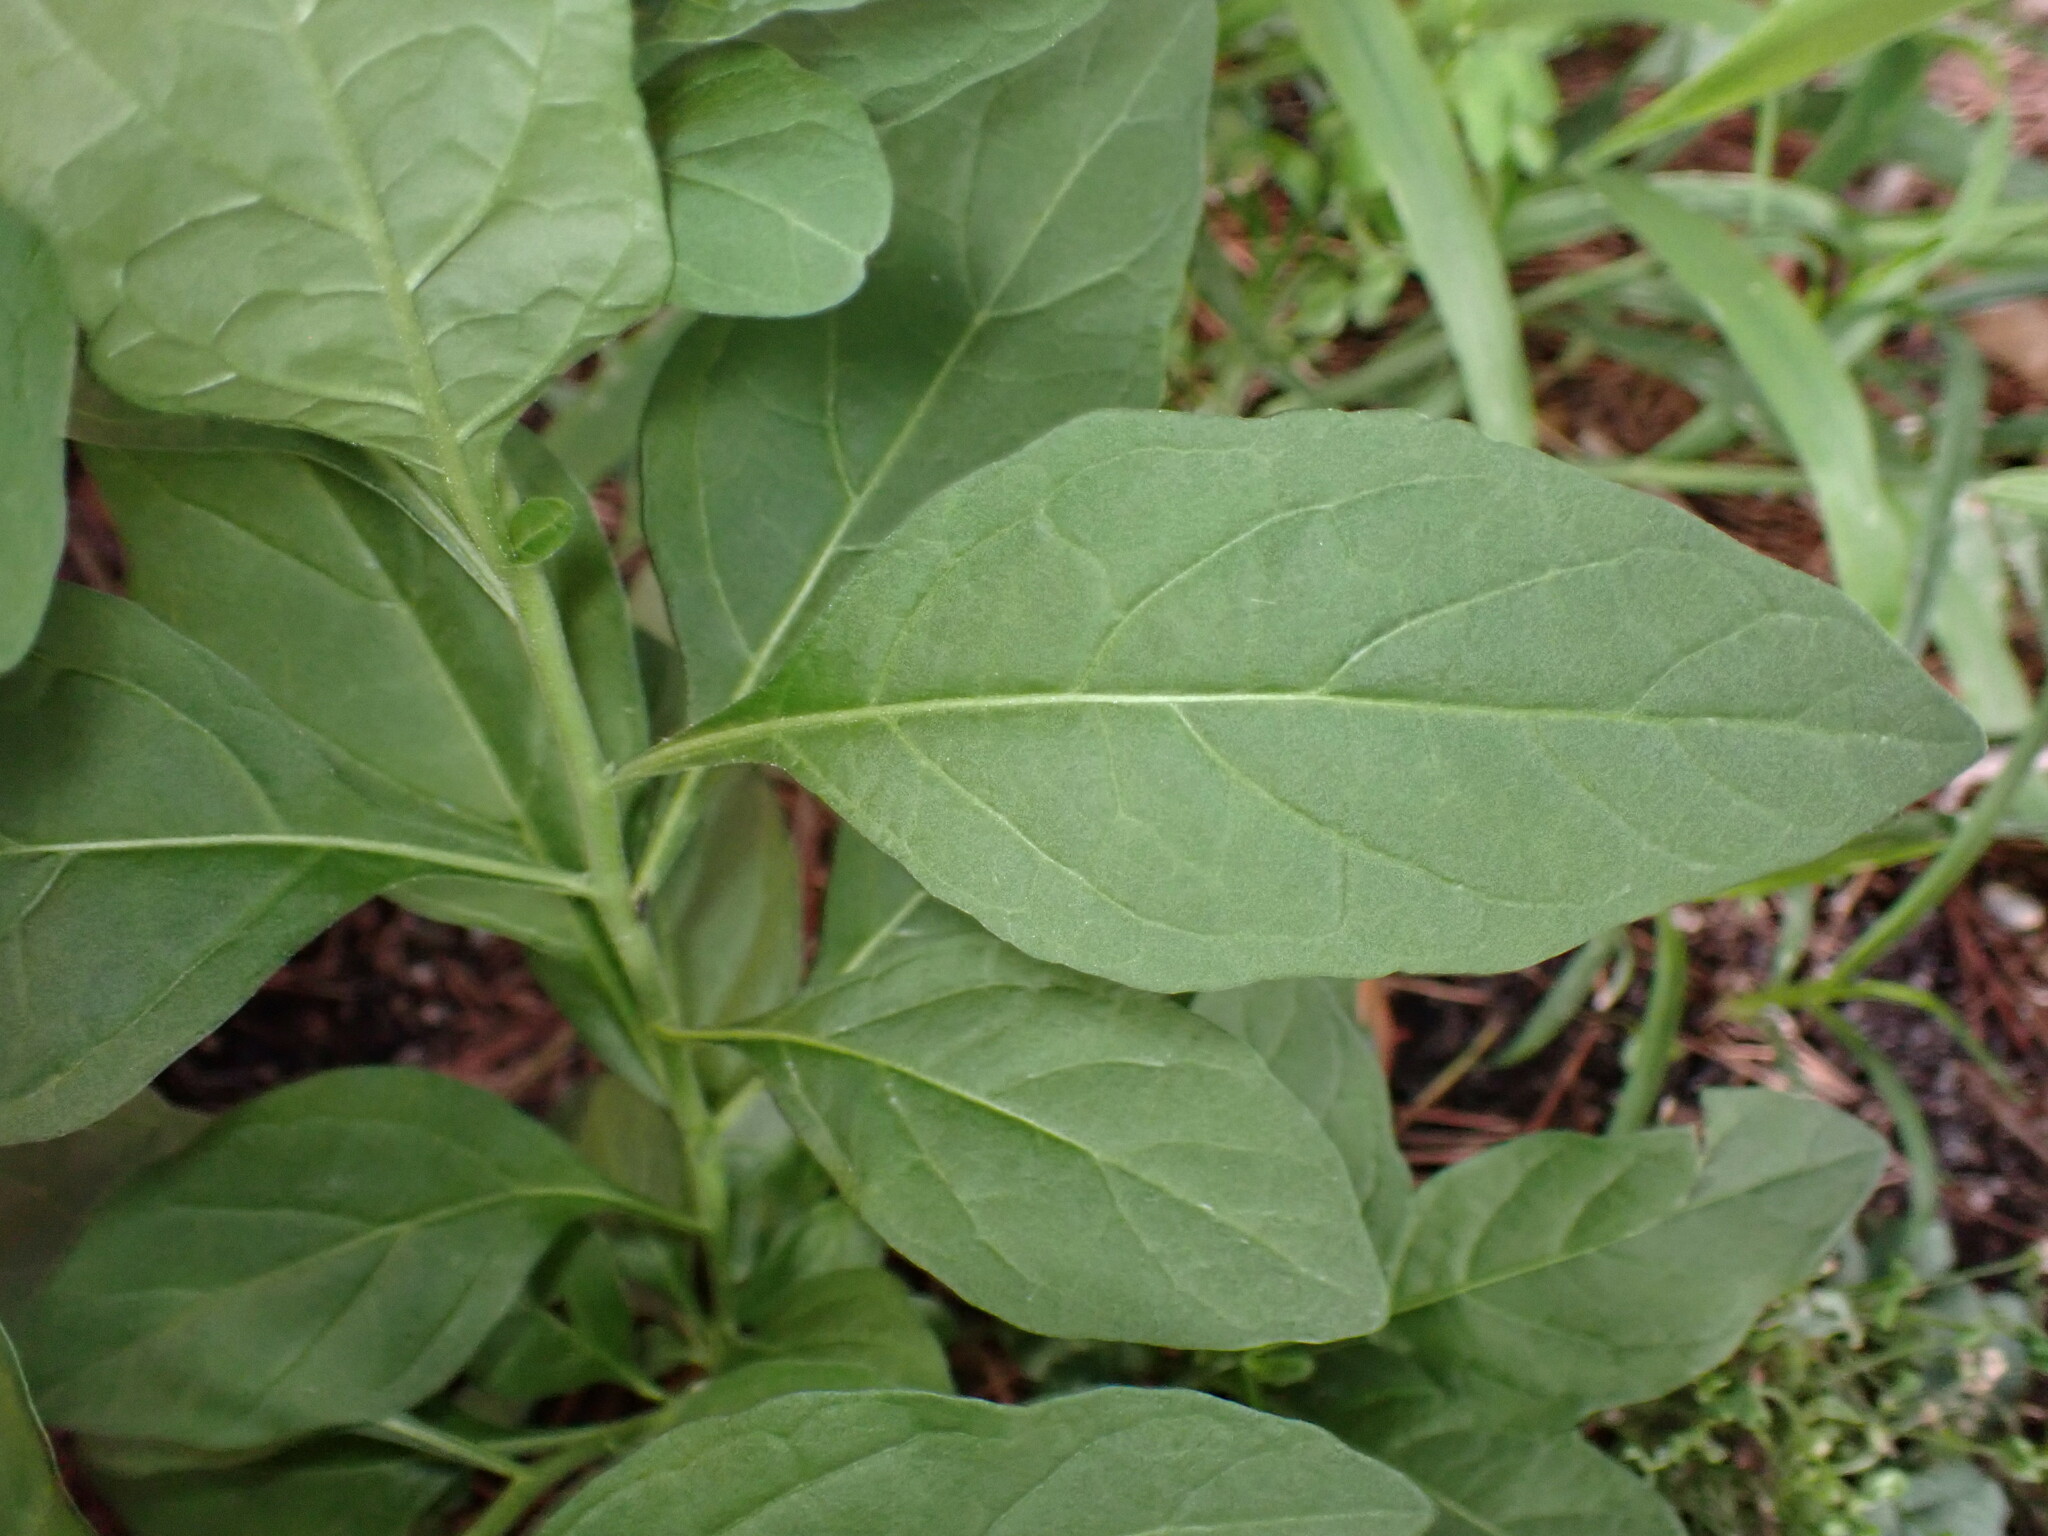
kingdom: Plantae
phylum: Tracheophyta
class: Magnoliopsida
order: Solanales
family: Solanaceae
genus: Solanum
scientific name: Solanum pseudocapsicum
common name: Jerusalem cherry
